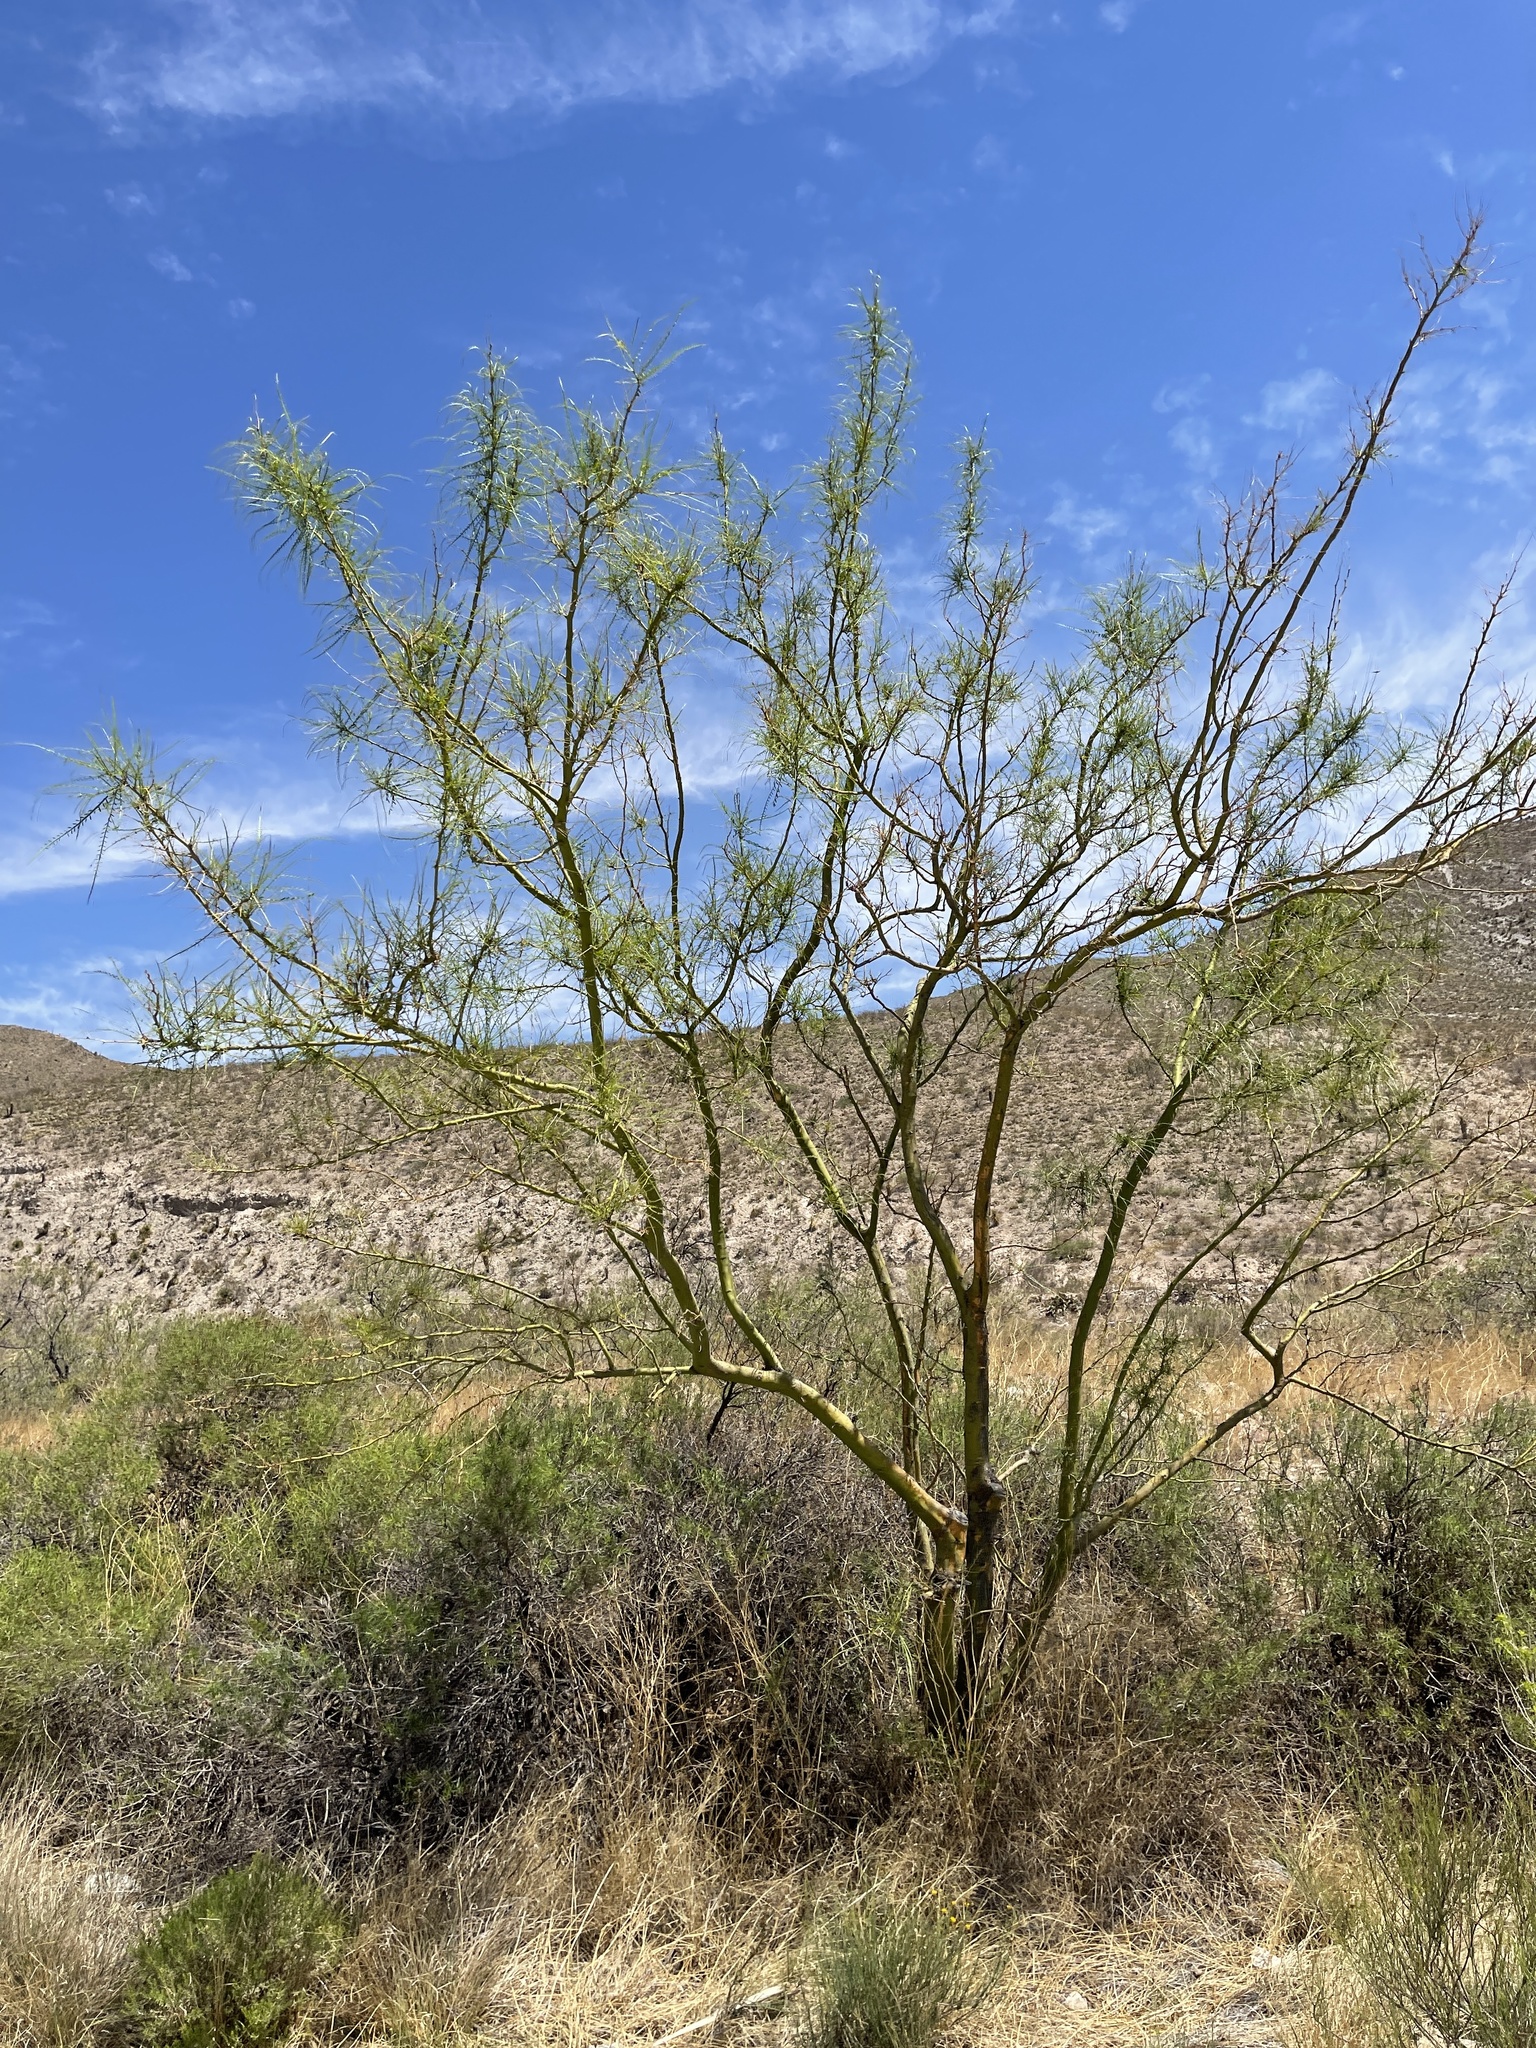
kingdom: Plantae
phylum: Tracheophyta
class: Magnoliopsida
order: Fabales
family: Fabaceae
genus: Parkinsonia
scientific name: Parkinsonia aculeata
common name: Jerusalem thorn
